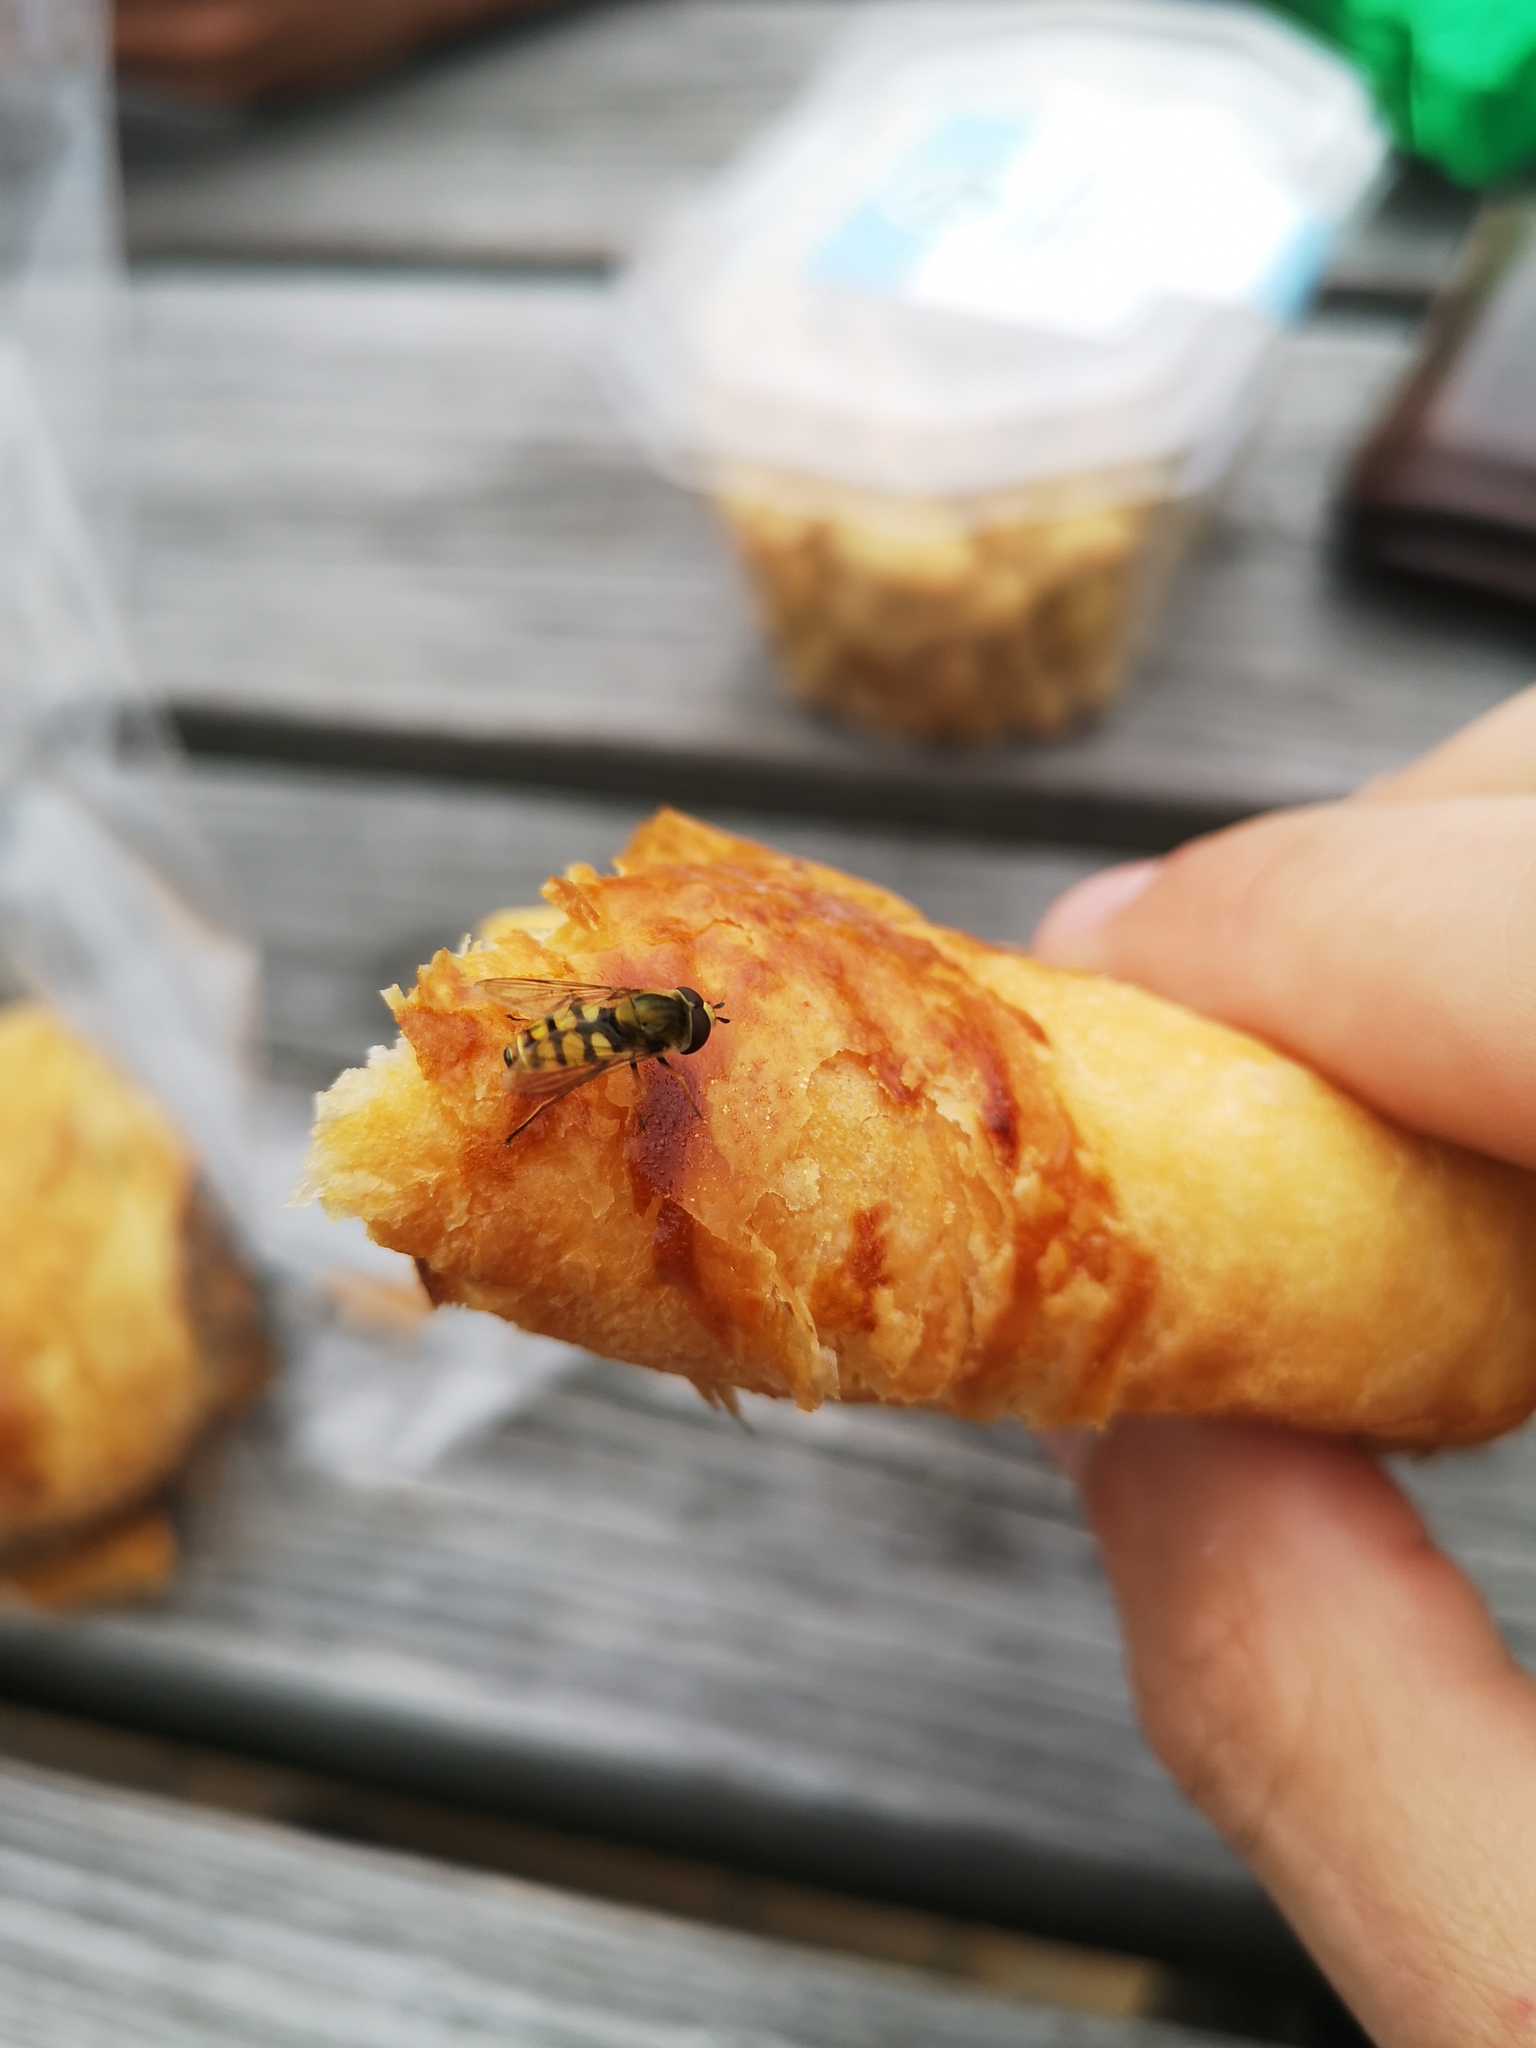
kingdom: Animalia
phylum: Arthropoda
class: Insecta
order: Diptera
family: Syrphidae
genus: Eupeodes
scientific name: Eupeodes corollae
